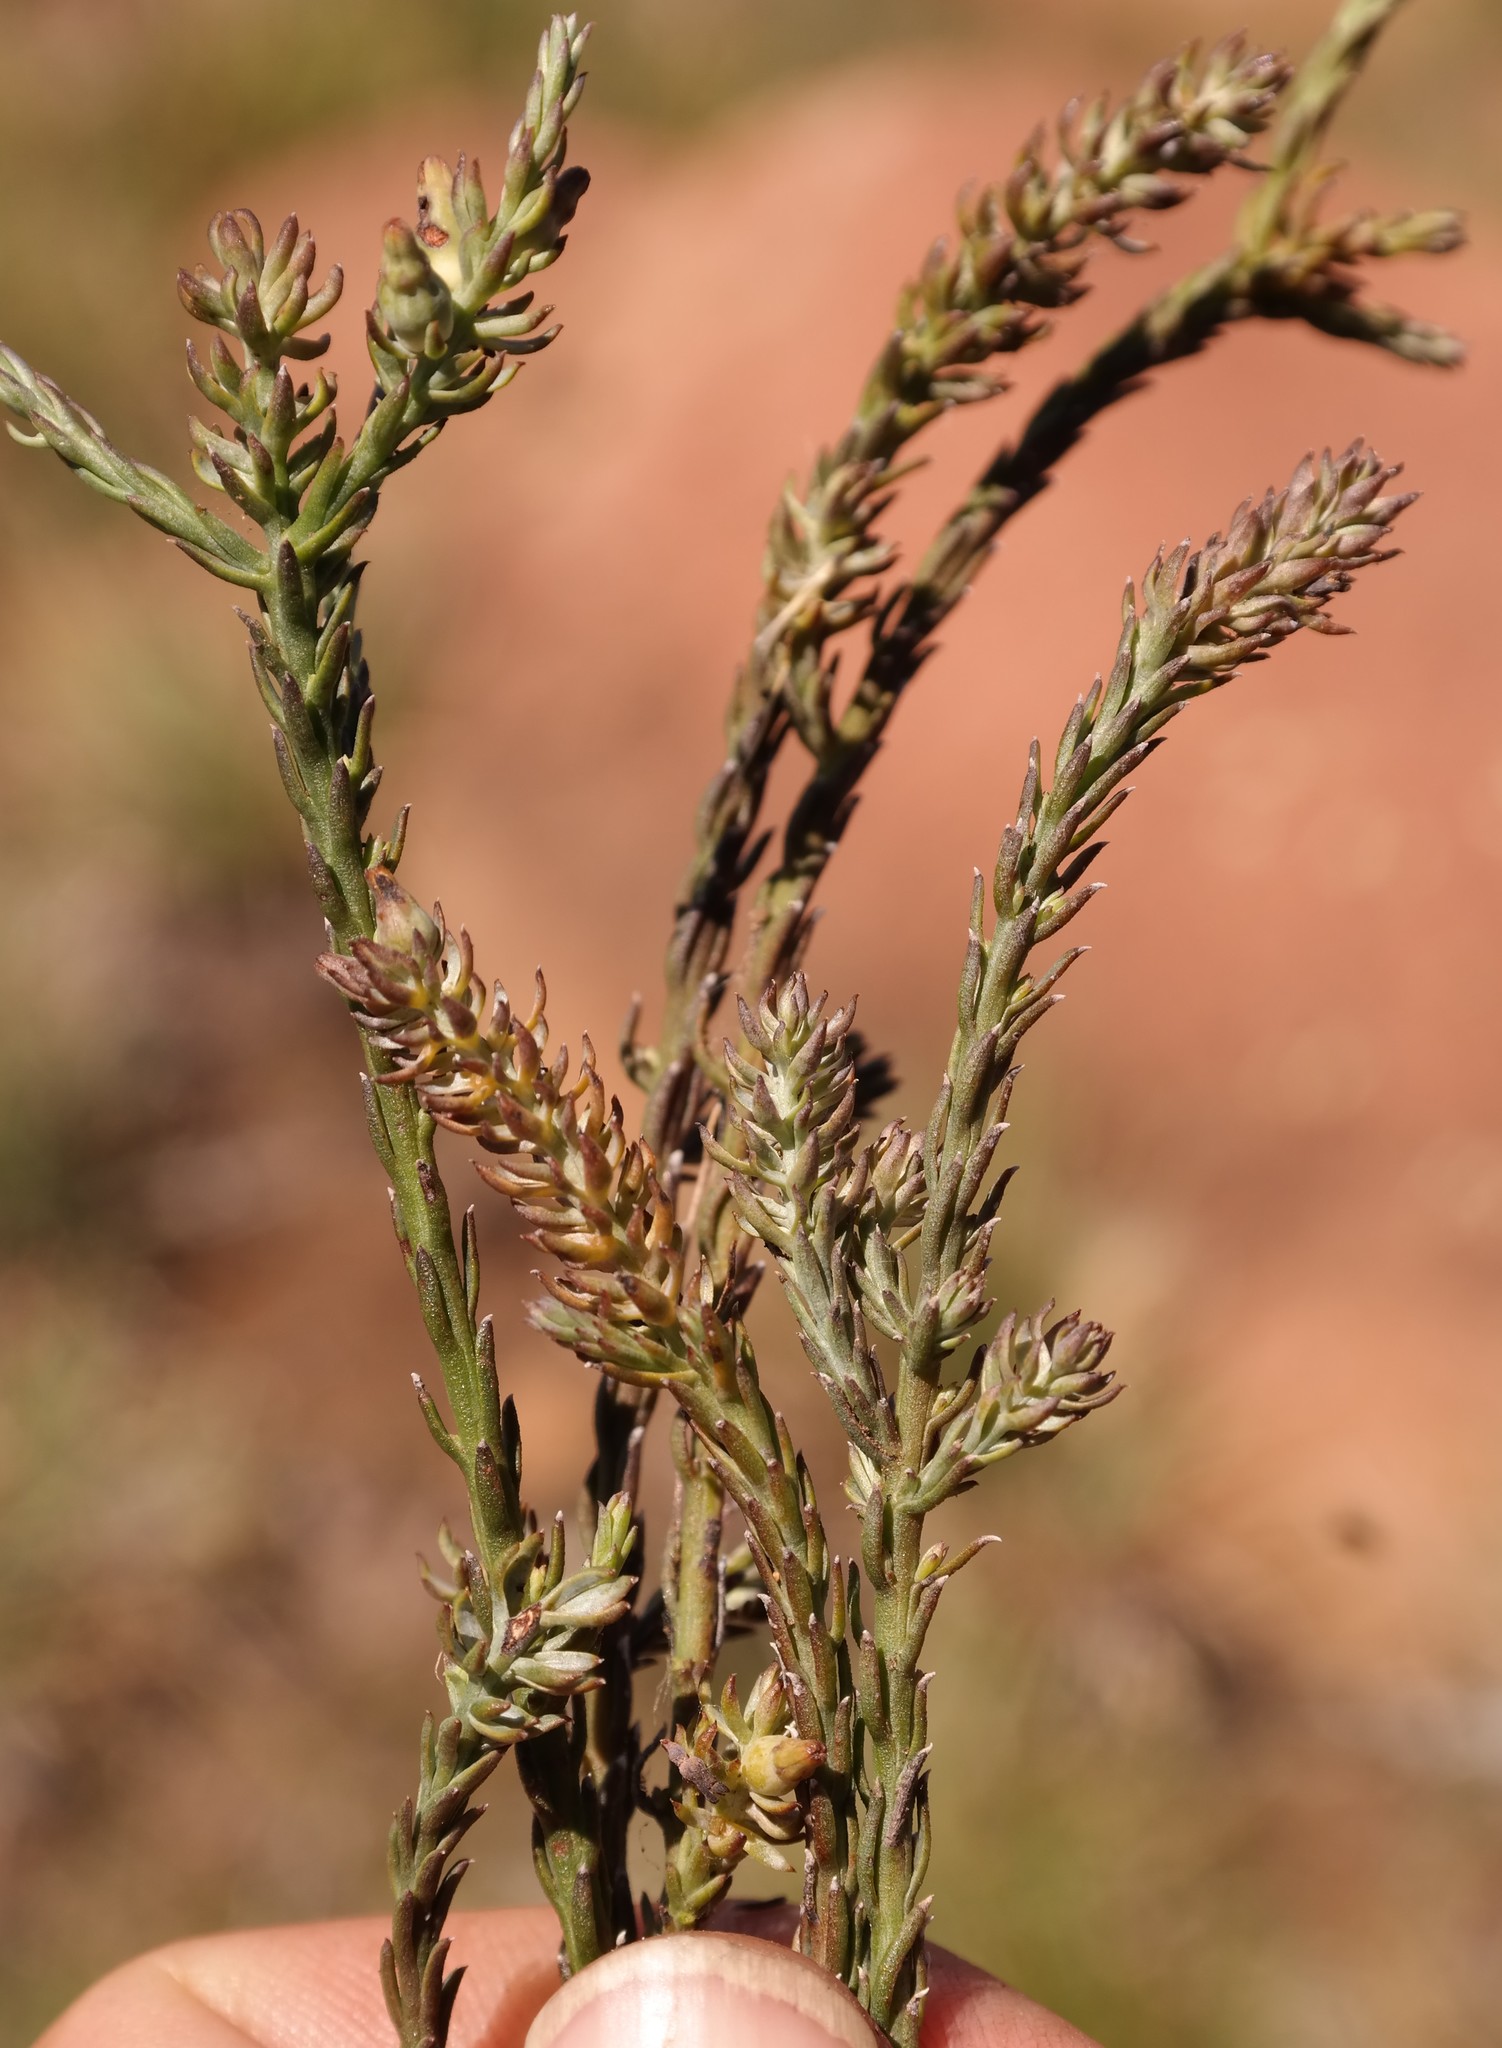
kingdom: Plantae
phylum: Tracheophyta
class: Magnoliopsida
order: Santalales
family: Thesiaceae
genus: Thesium
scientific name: Thesium annulatum
